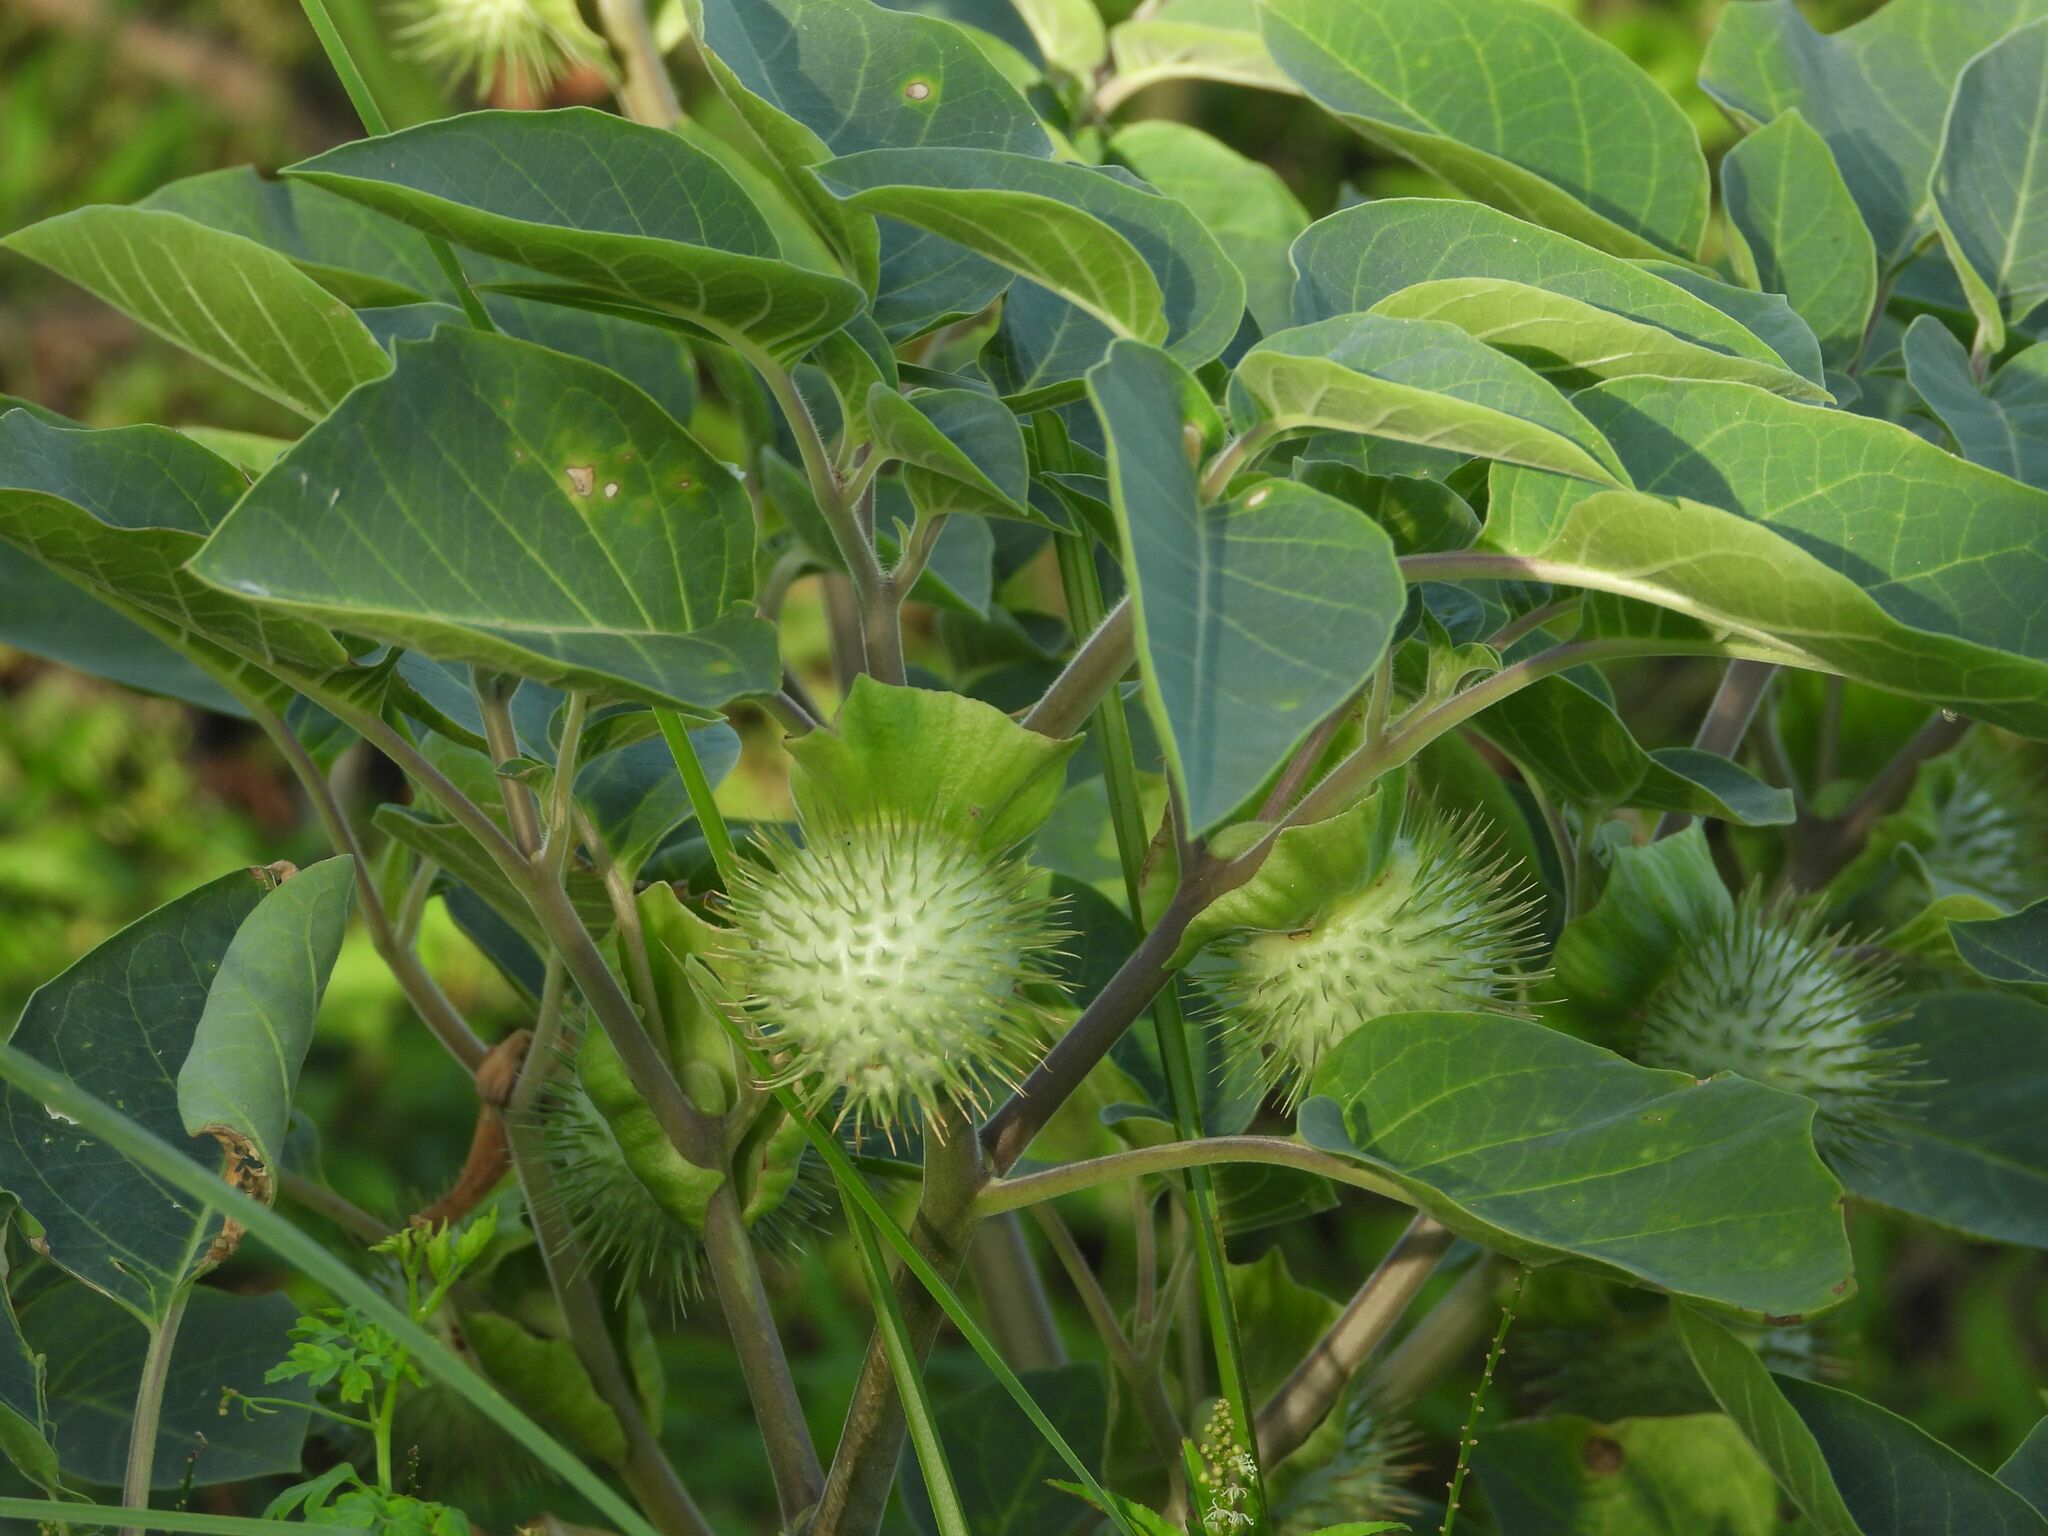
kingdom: Plantae
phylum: Tracheophyta
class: Magnoliopsida
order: Solanales
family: Solanaceae
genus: Datura
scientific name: Datura innoxia
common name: Downy thorn-apple
